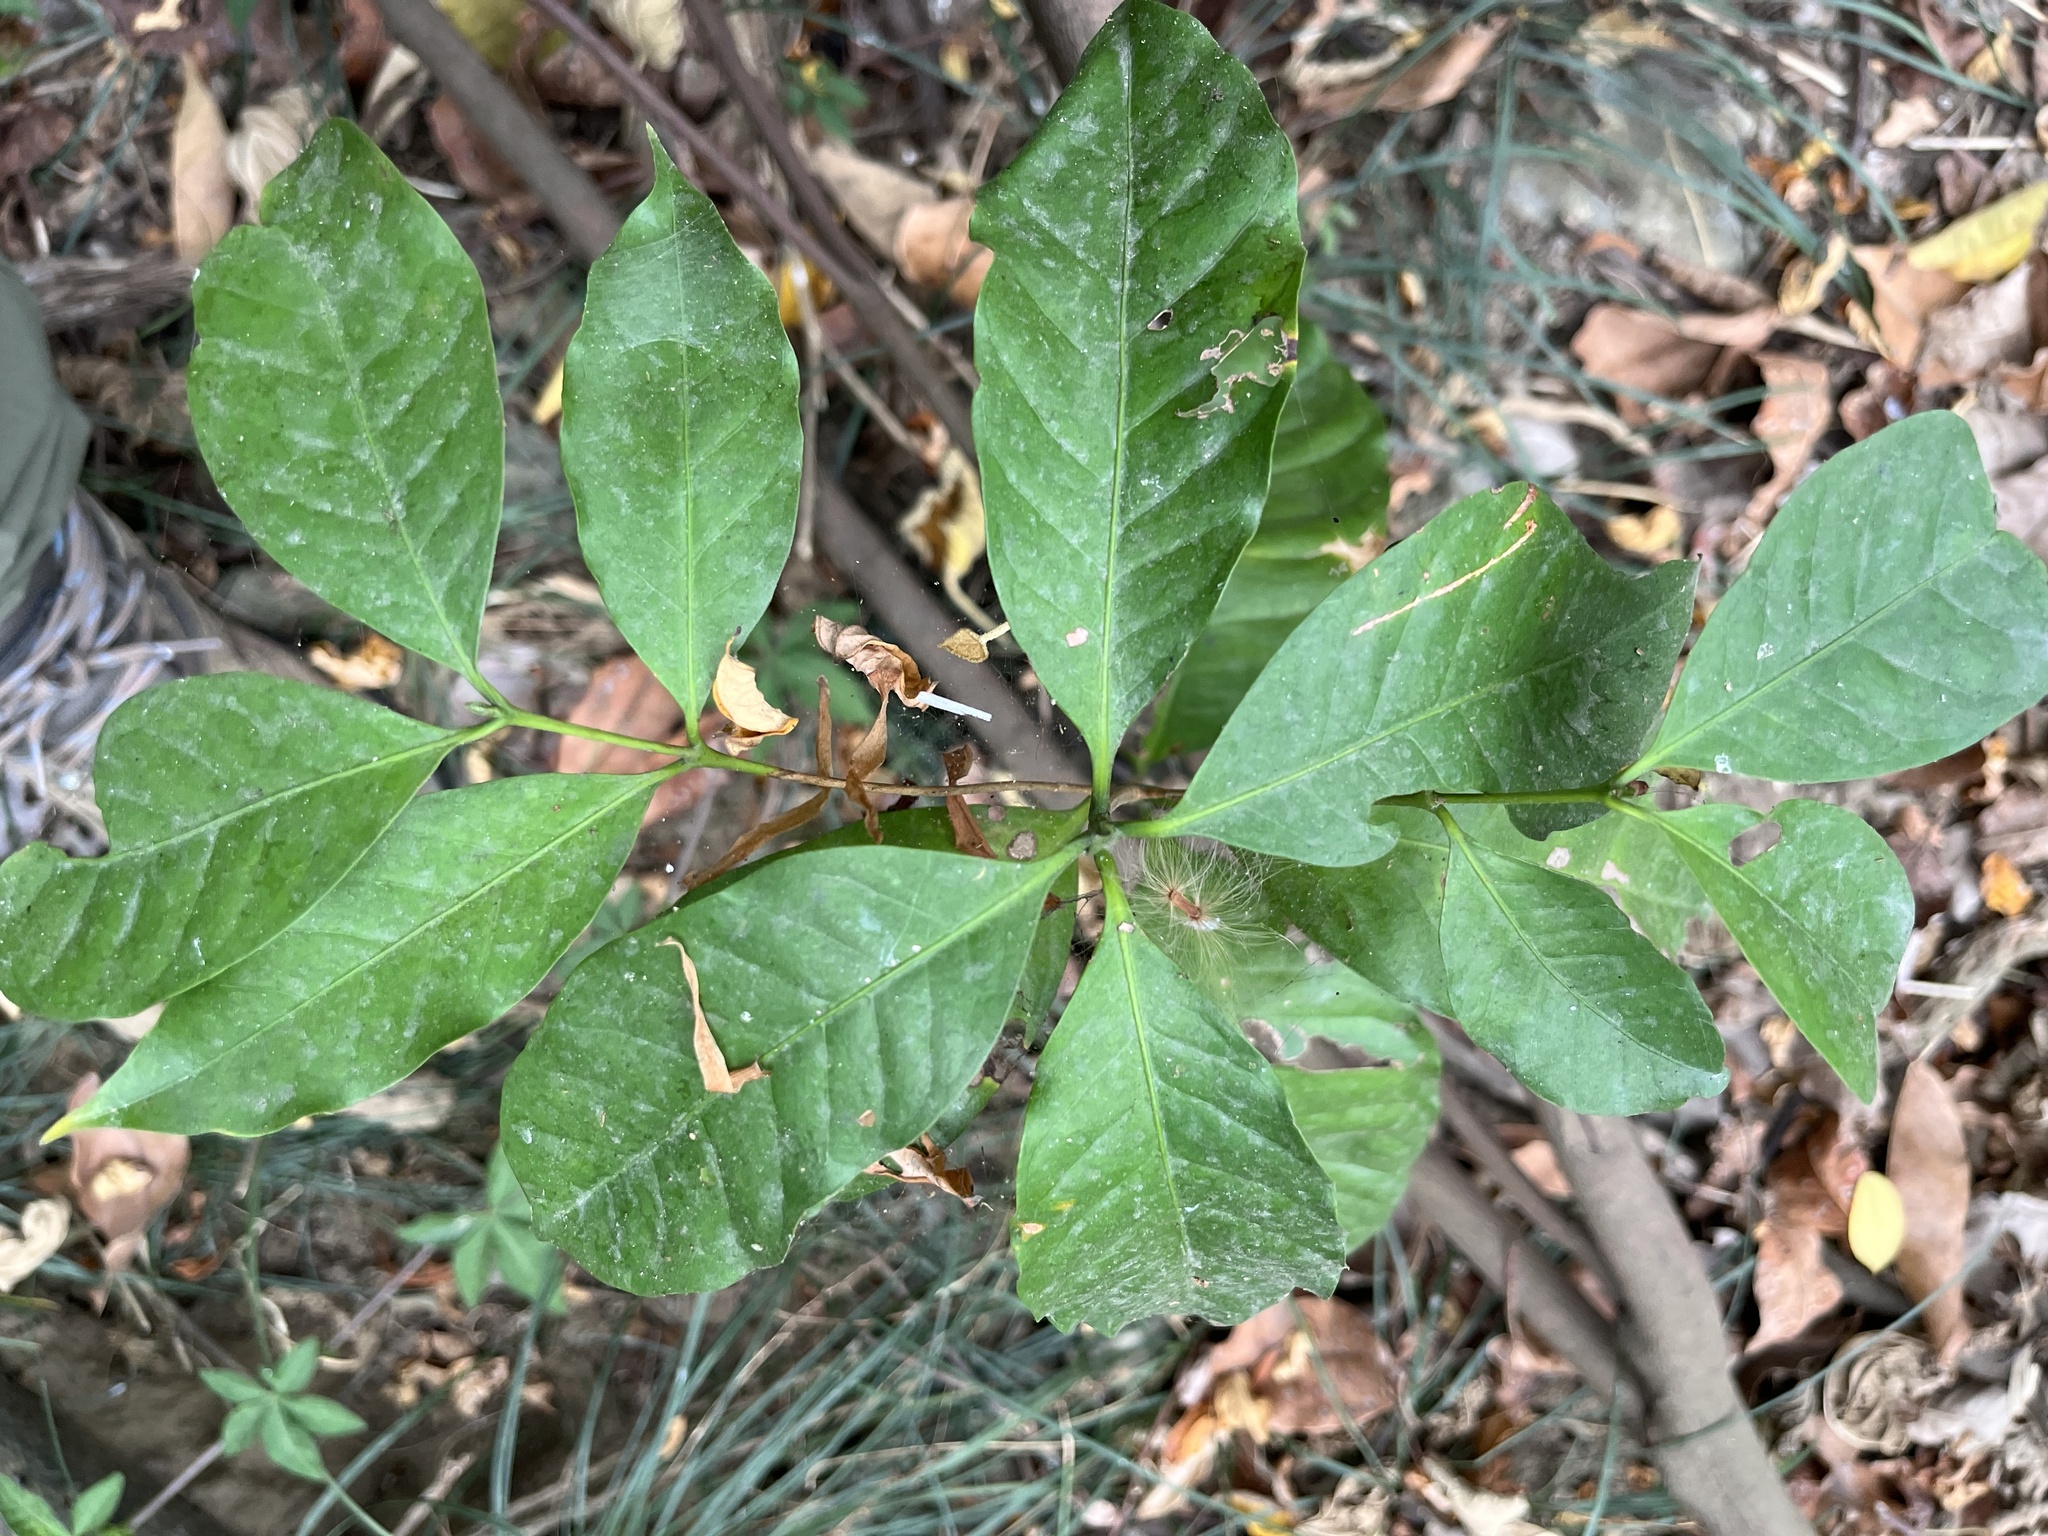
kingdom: Plantae
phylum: Tracheophyta
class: Magnoliopsida
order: Gentianales
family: Apocynaceae
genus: Rauvolfia
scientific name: Rauvolfia verticillata
